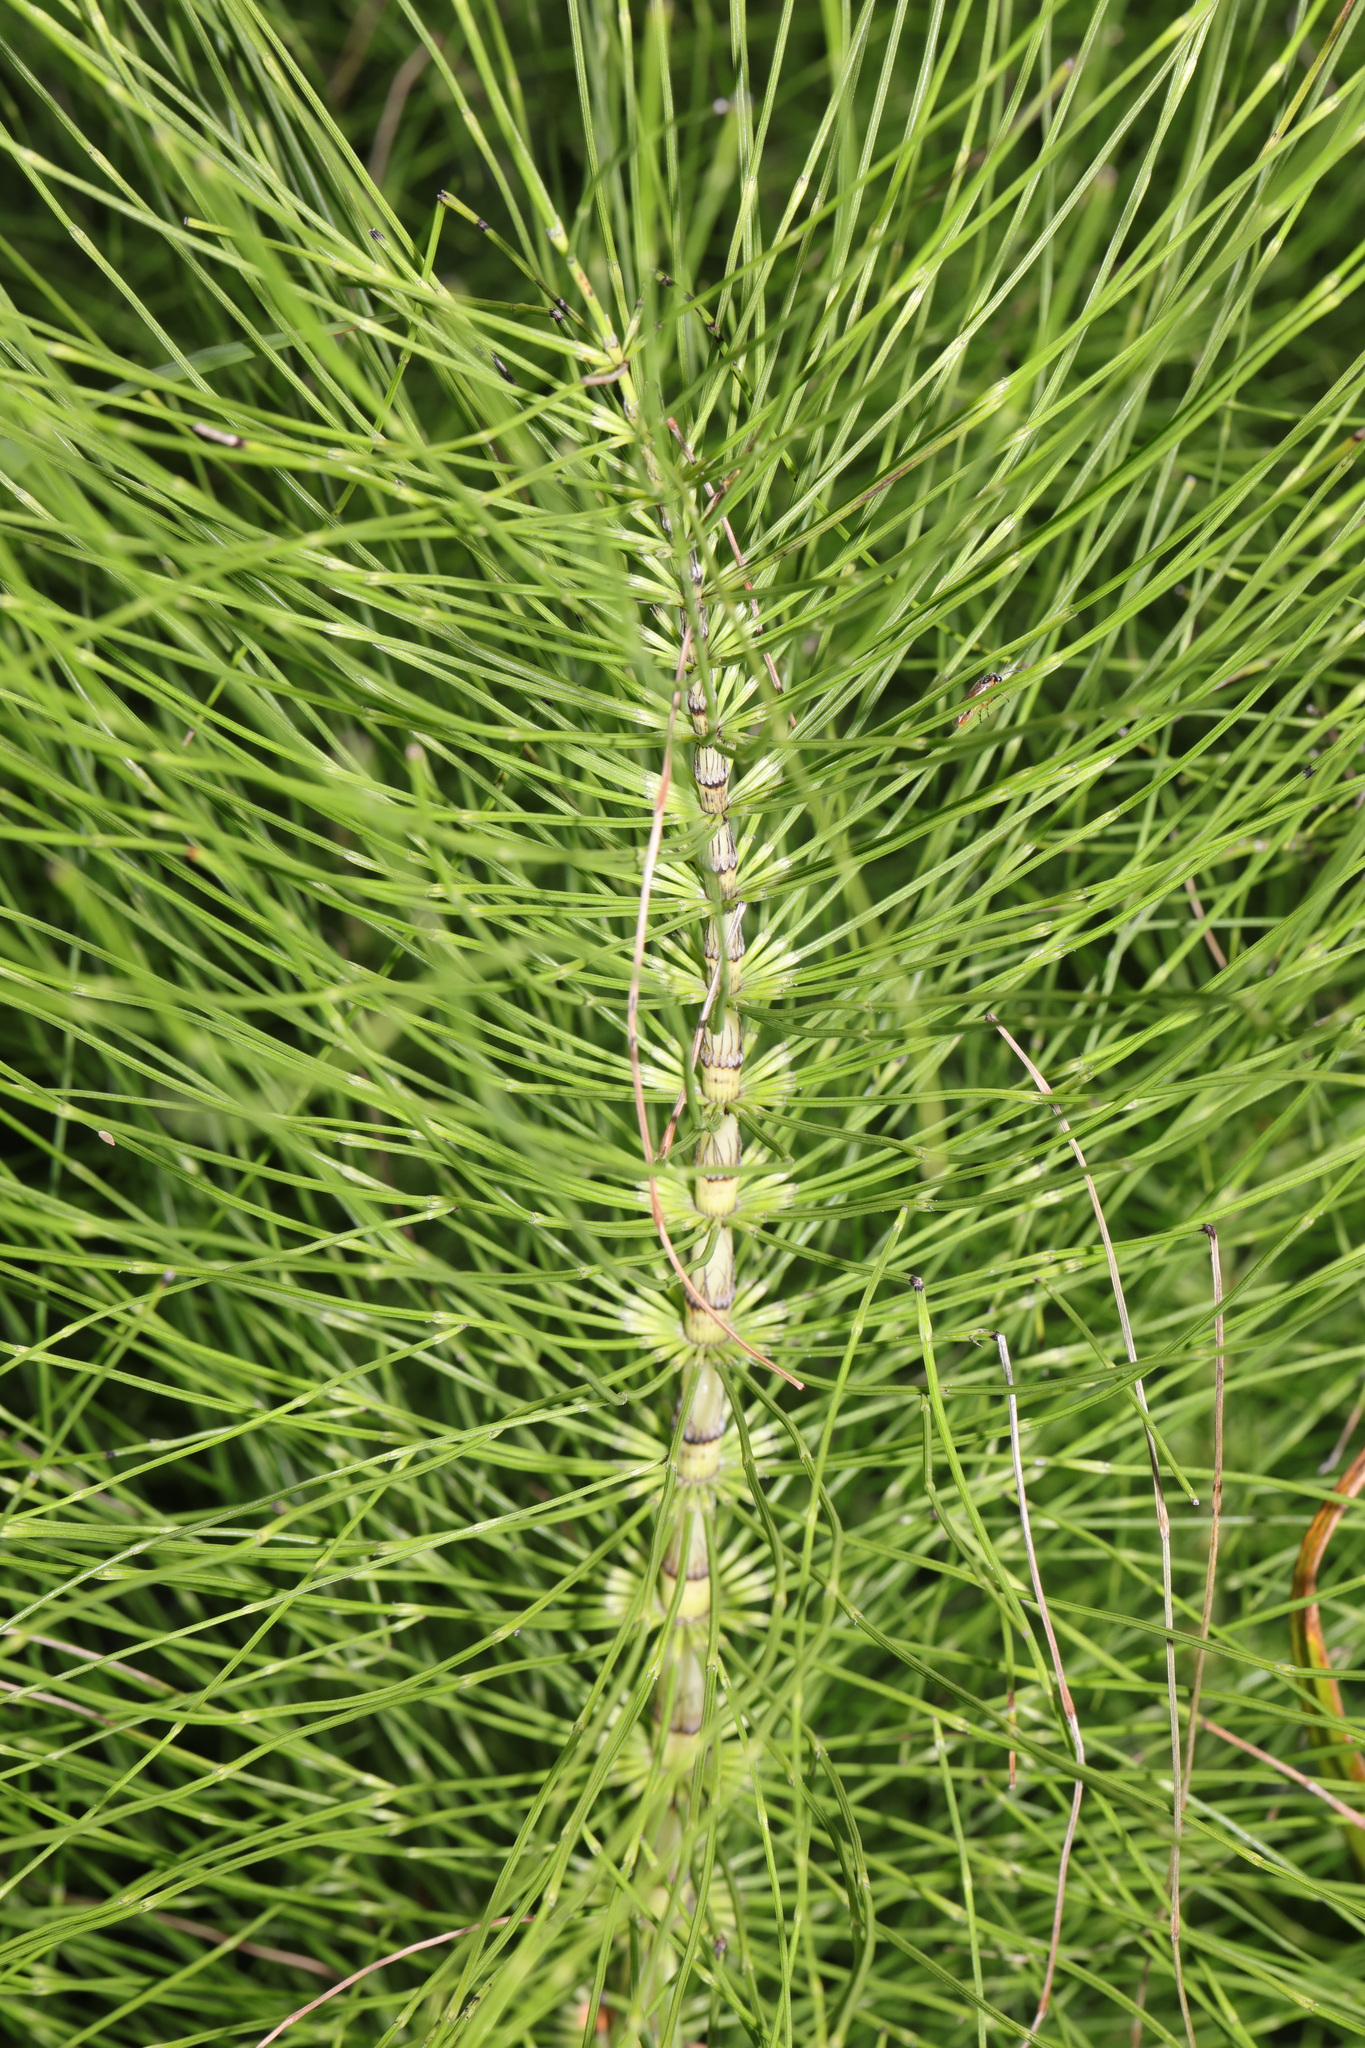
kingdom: Plantae
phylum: Tracheophyta
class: Polypodiopsida
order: Equisetales
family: Equisetaceae
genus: Equisetum
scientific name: Equisetum telmateia
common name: Great horsetail
